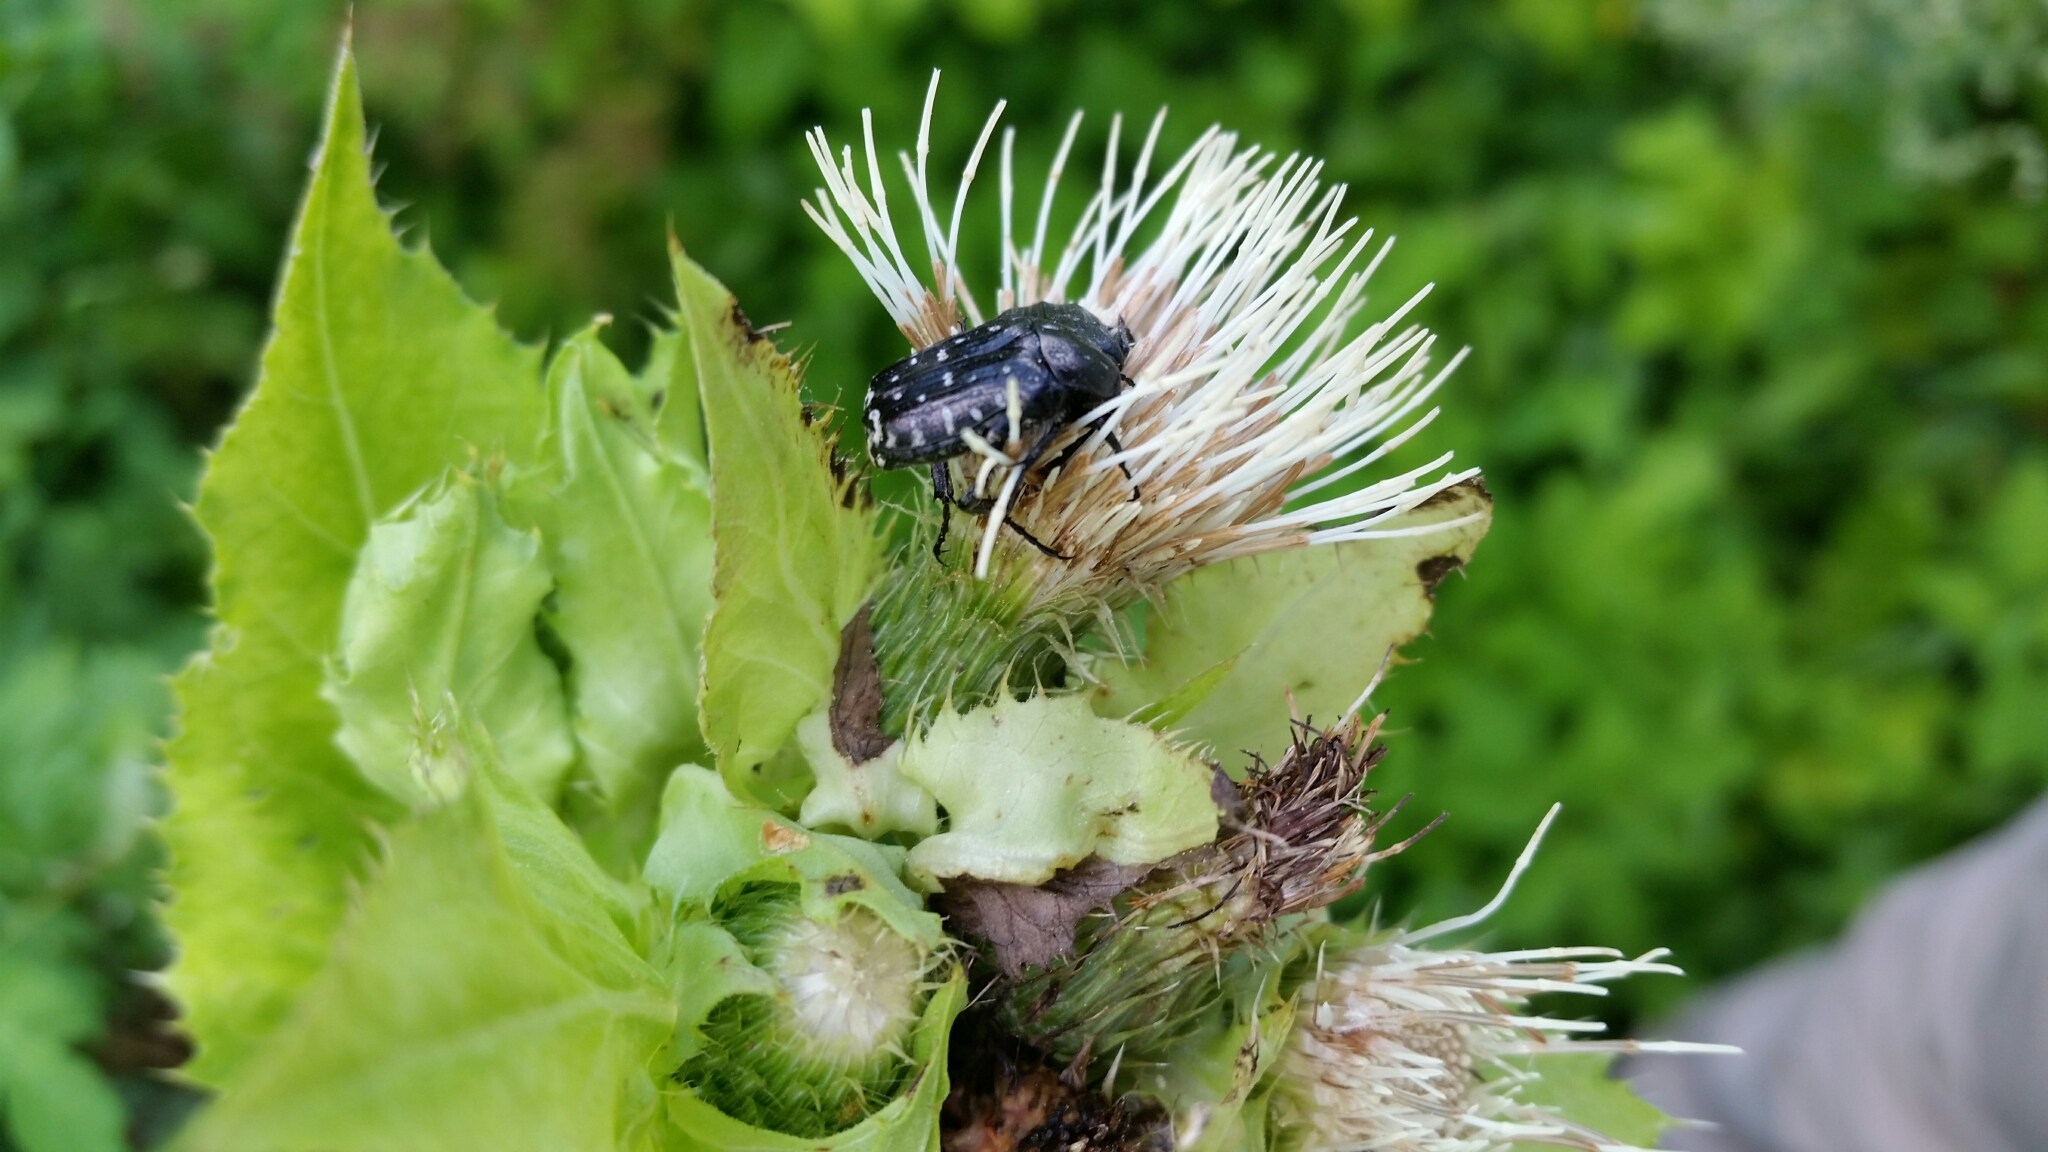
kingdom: Animalia
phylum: Arthropoda
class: Insecta
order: Coleoptera
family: Scarabaeidae
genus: Oxythyrea
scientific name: Oxythyrea funesta
